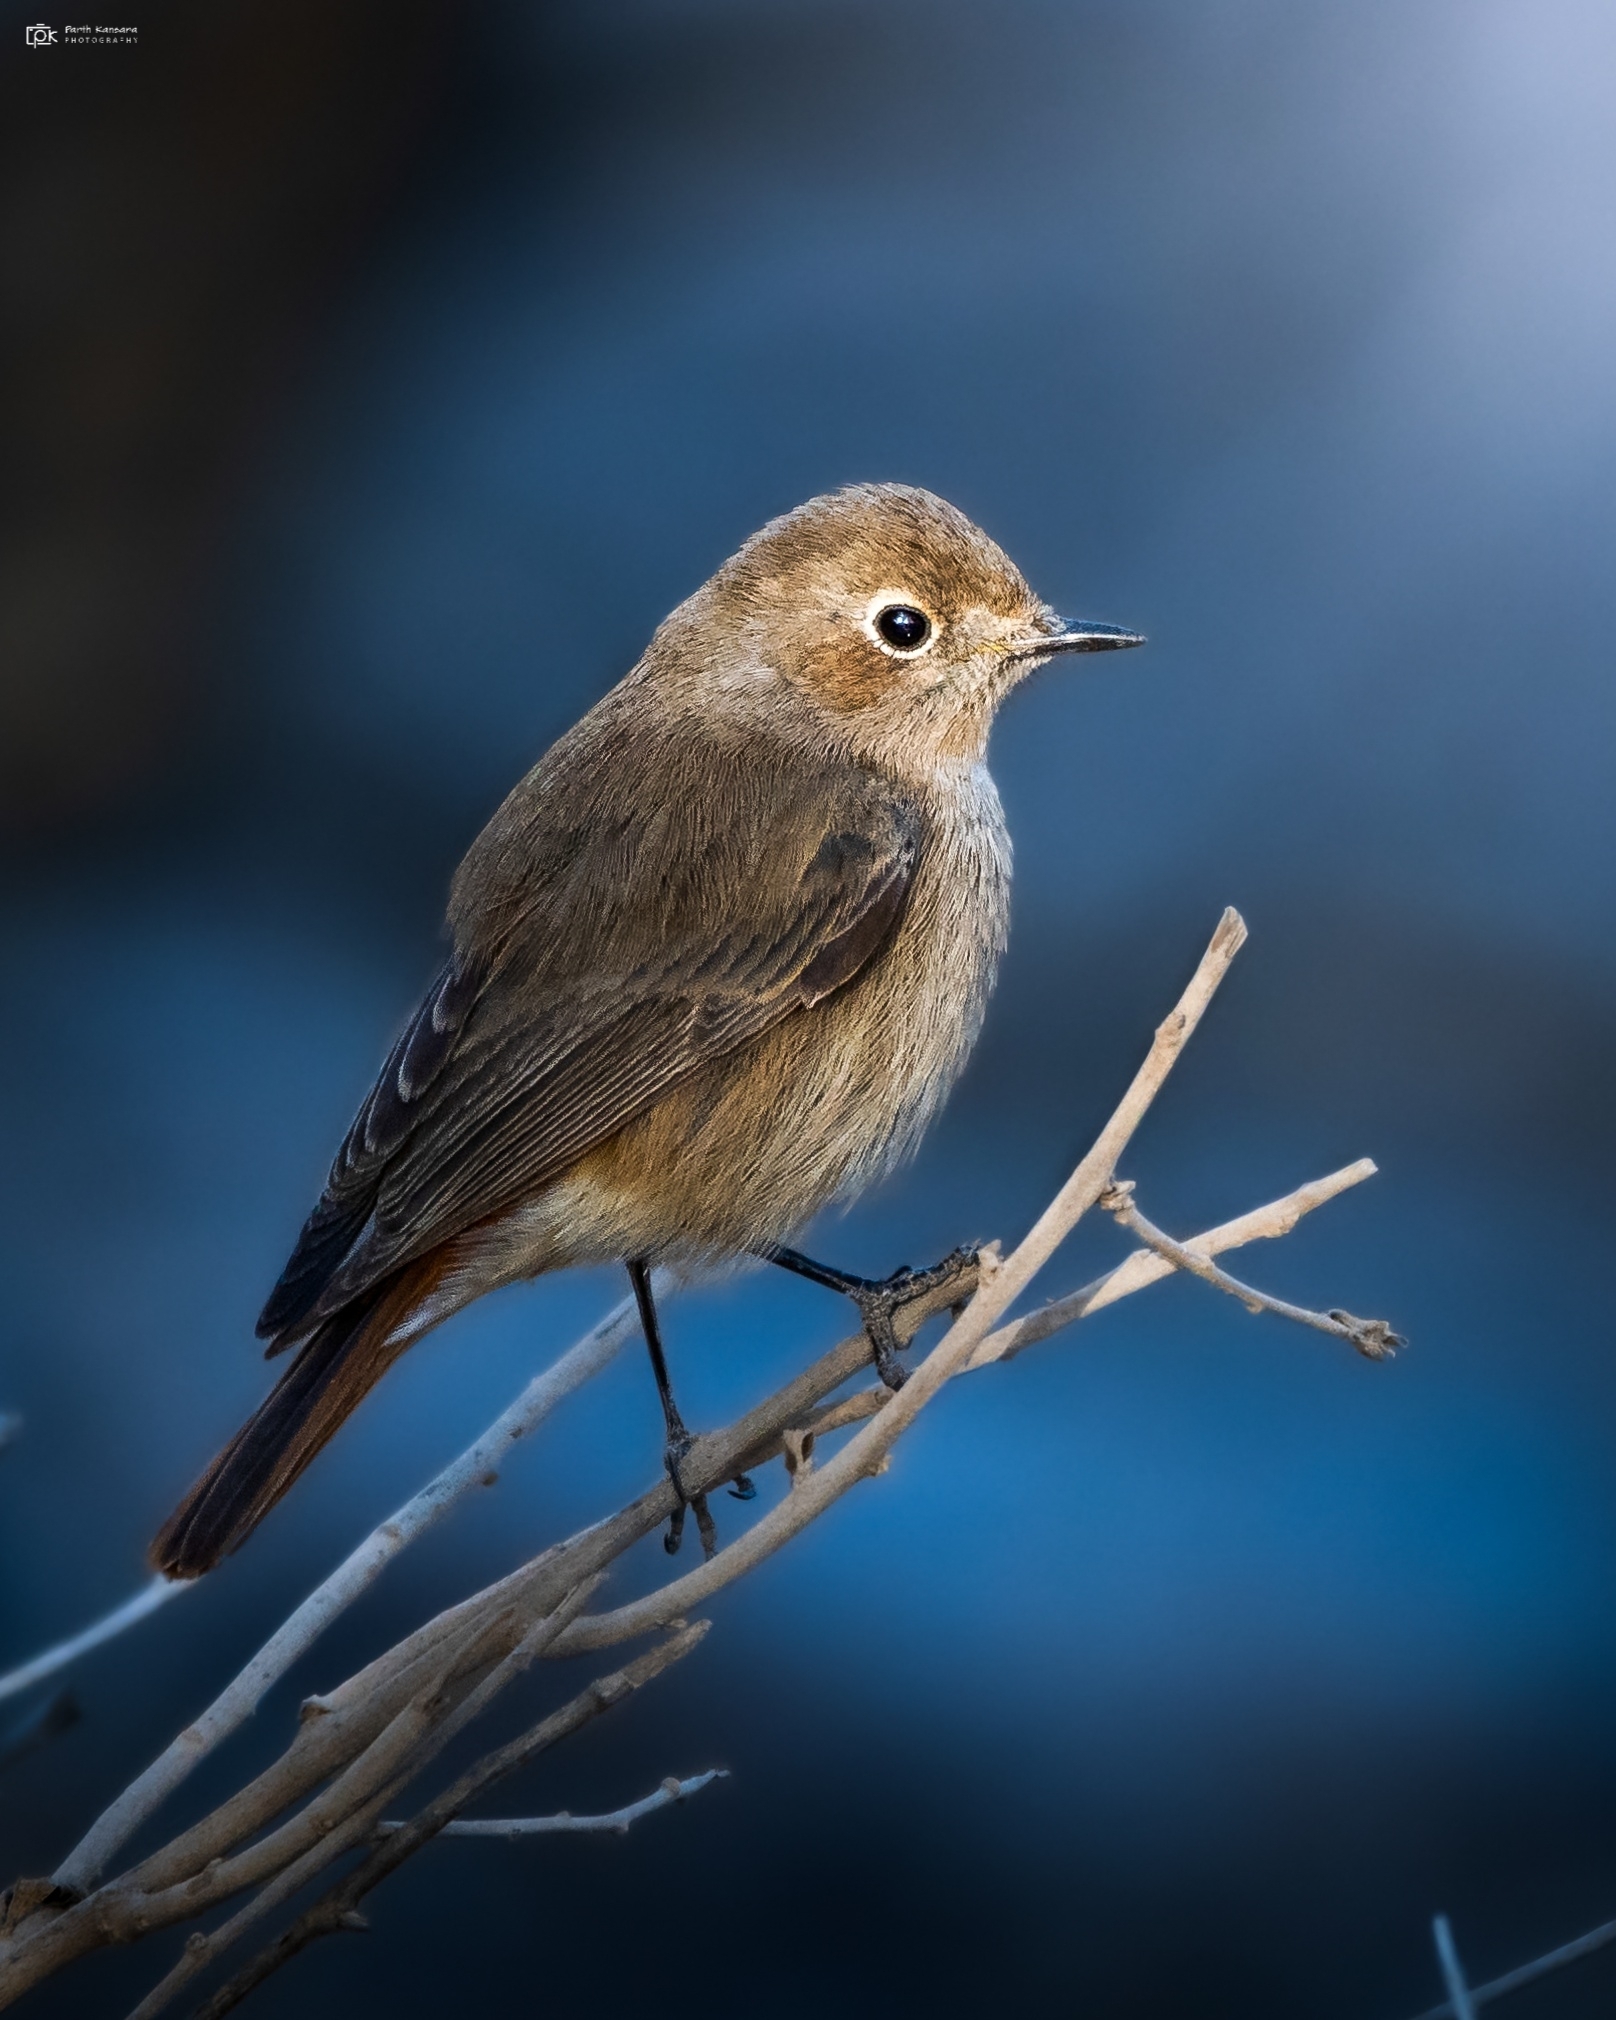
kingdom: Animalia
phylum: Chordata
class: Aves
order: Passeriformes
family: Muscicapidae
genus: Phoenicurus
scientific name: Phoenicurus ochruros
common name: Black redstart
